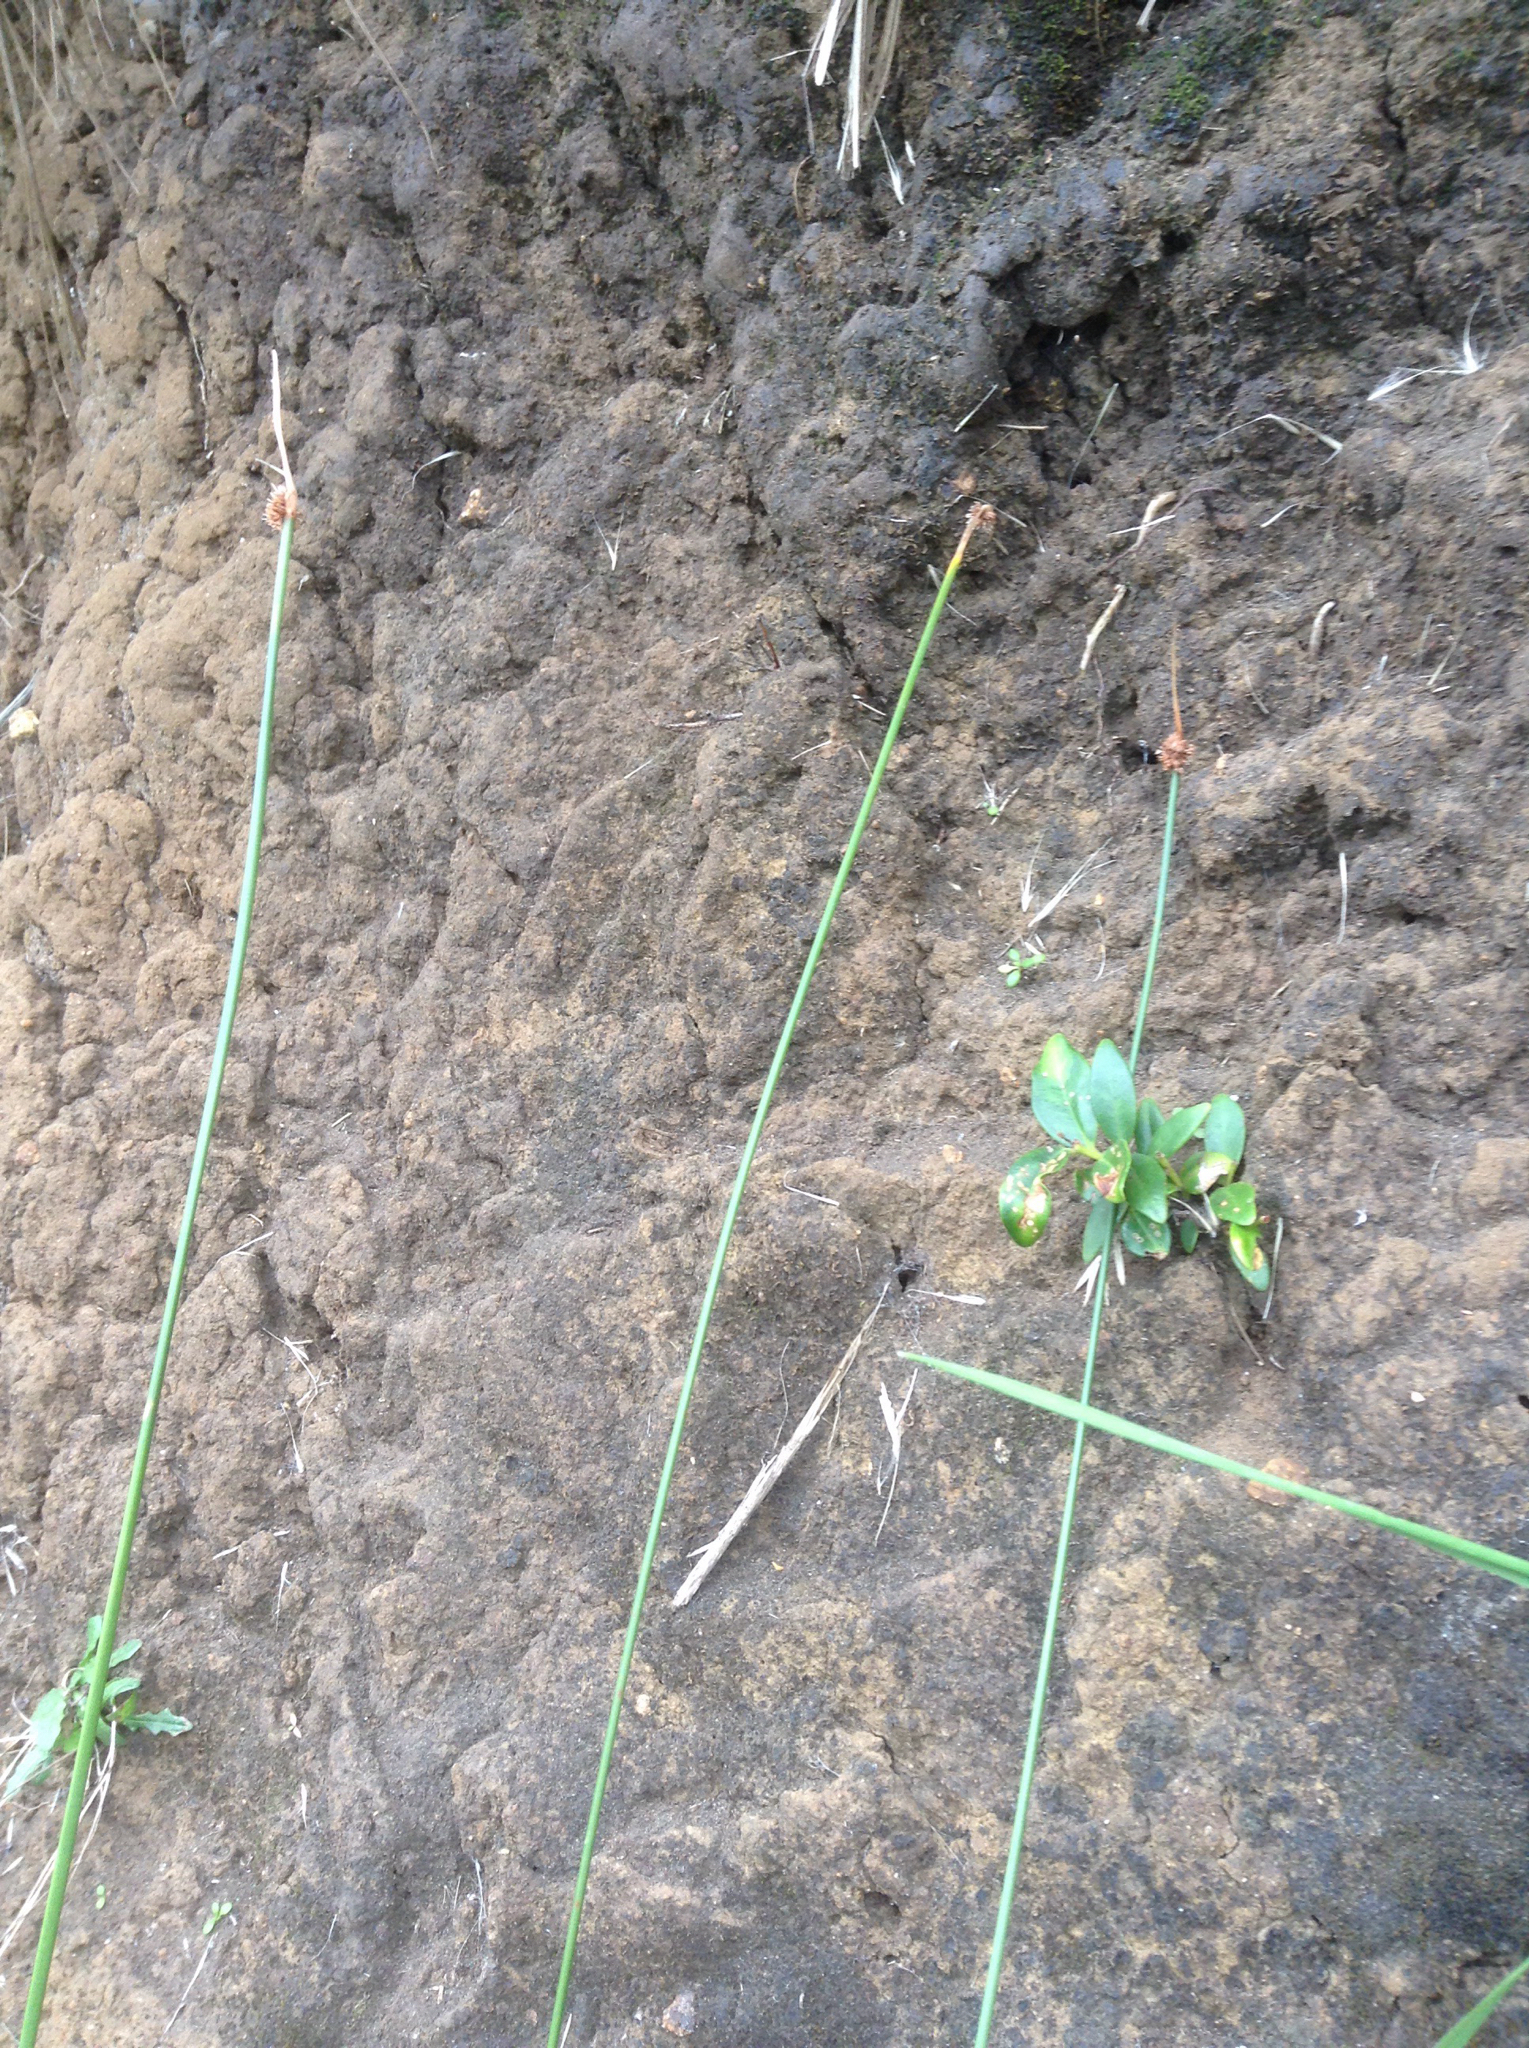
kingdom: Plantae
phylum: Tracheophyta
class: Liliopsida
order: Poales
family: Cyperaceae
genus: Ficinia
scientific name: Ficinia nodosa
